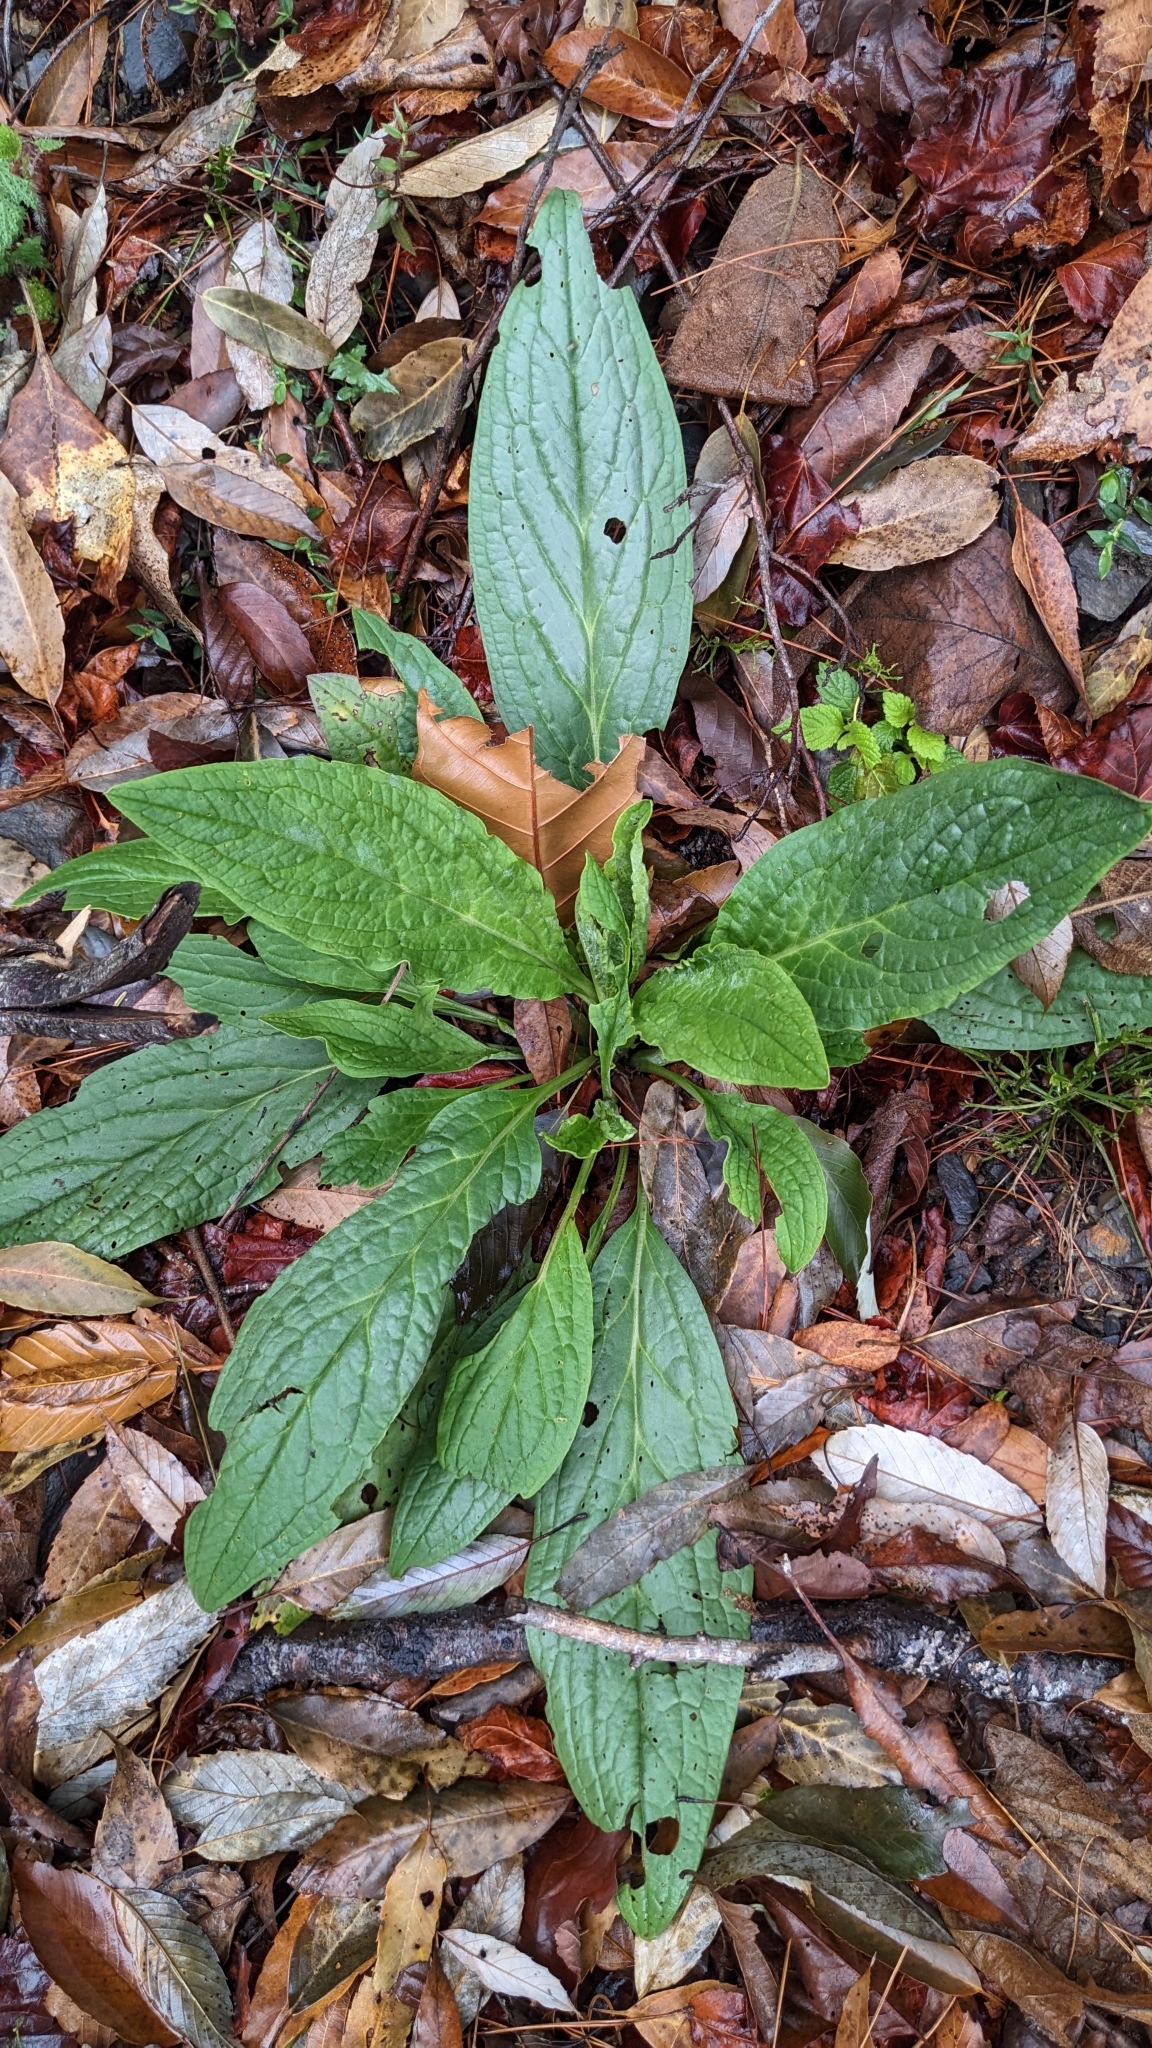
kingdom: Plantae
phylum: Tracheophyta
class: Magnoliopsida
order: Boraginales
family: Boraginaceae
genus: Cynoglossum
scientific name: Cynoglossum zeylanicum
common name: Ceylon hound's tongue
